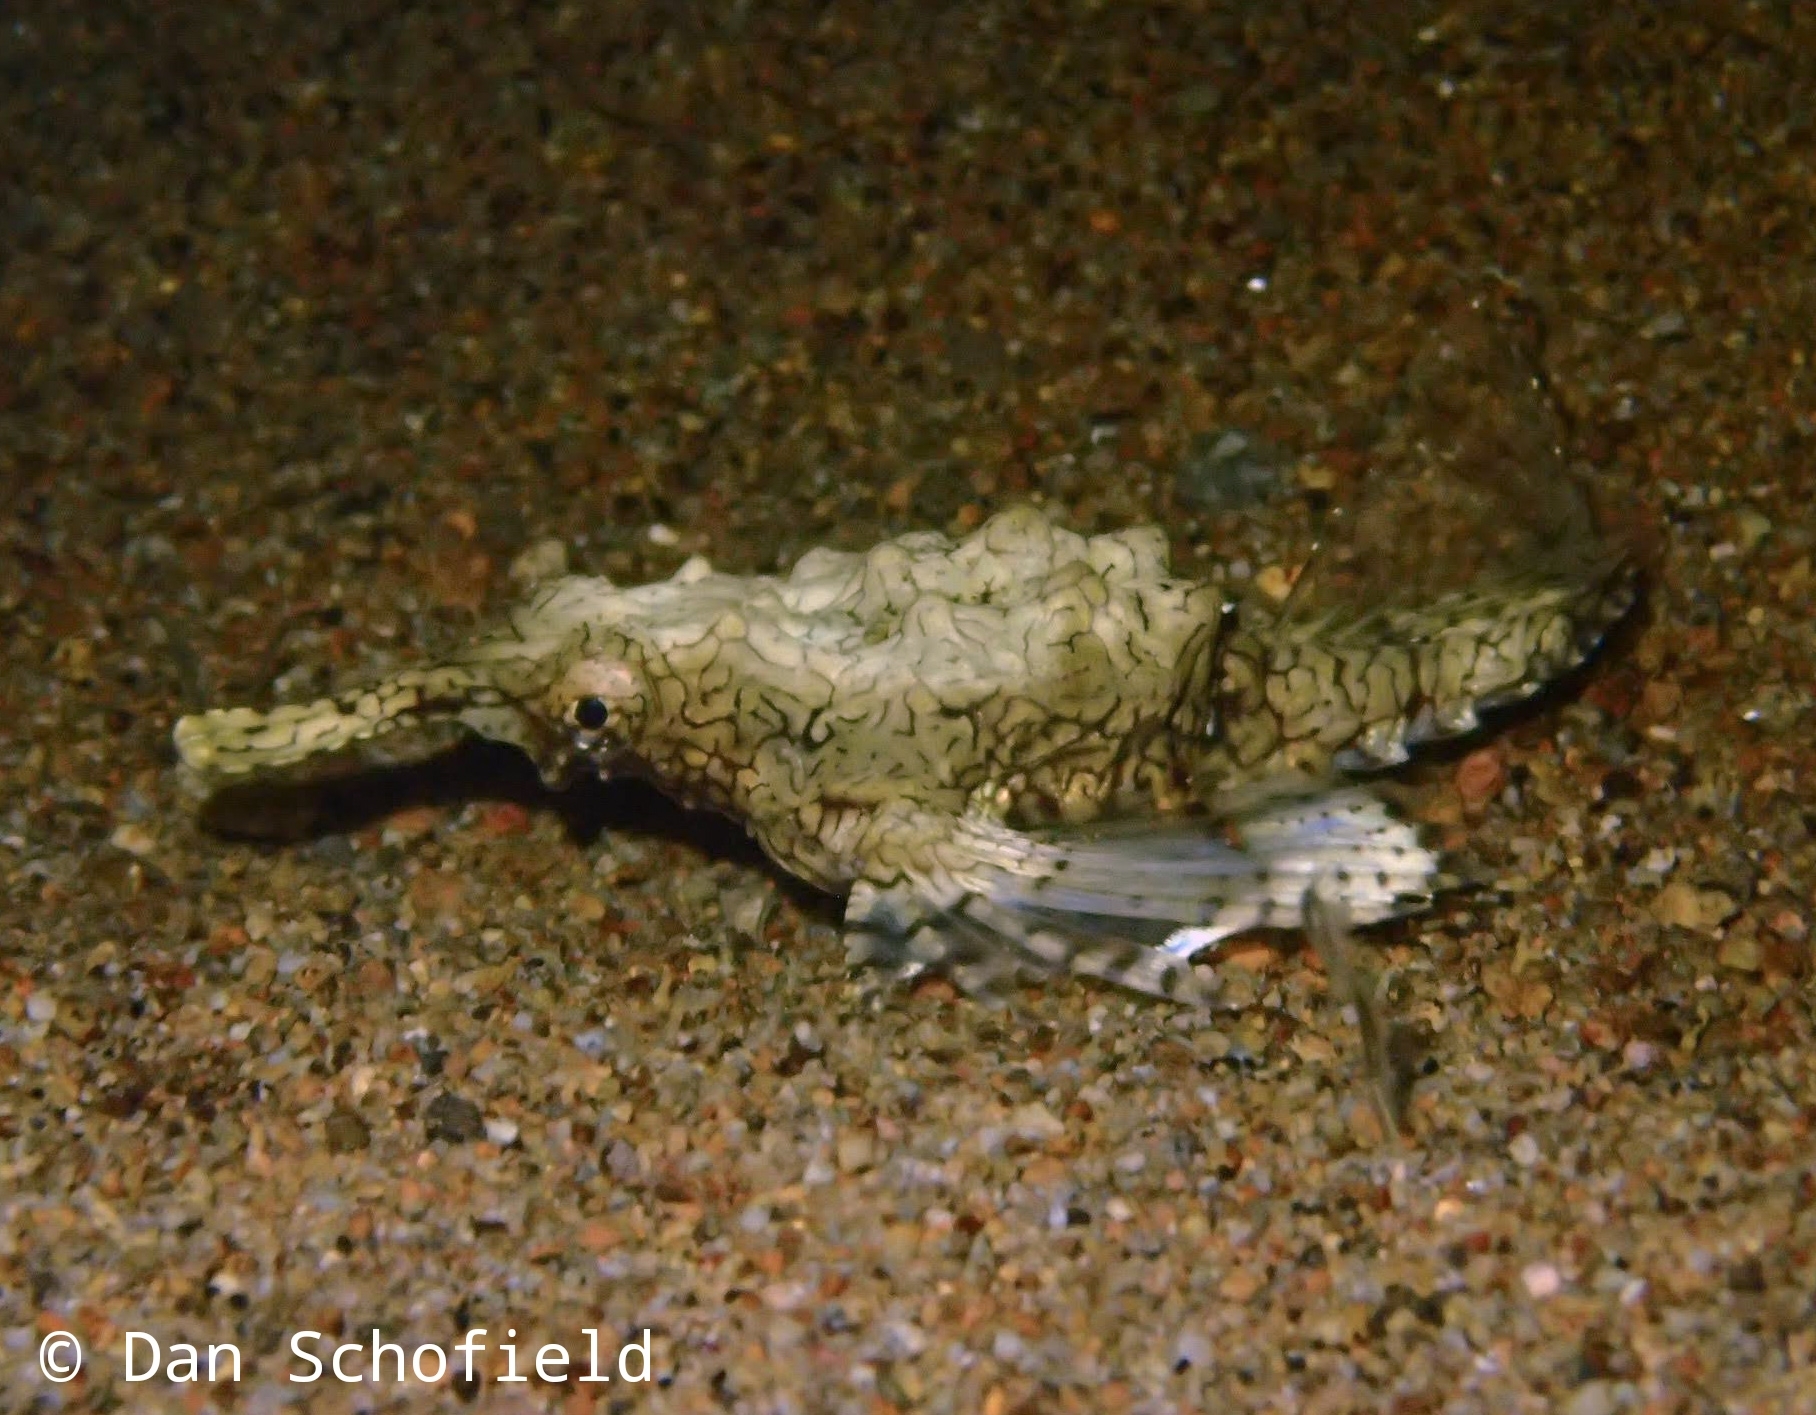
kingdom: Animalia
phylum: Chordata
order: Gasterosteiformes
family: Pegasidae
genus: Eurypegasus
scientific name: Eurypegasus draconis
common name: Short dragonfish
